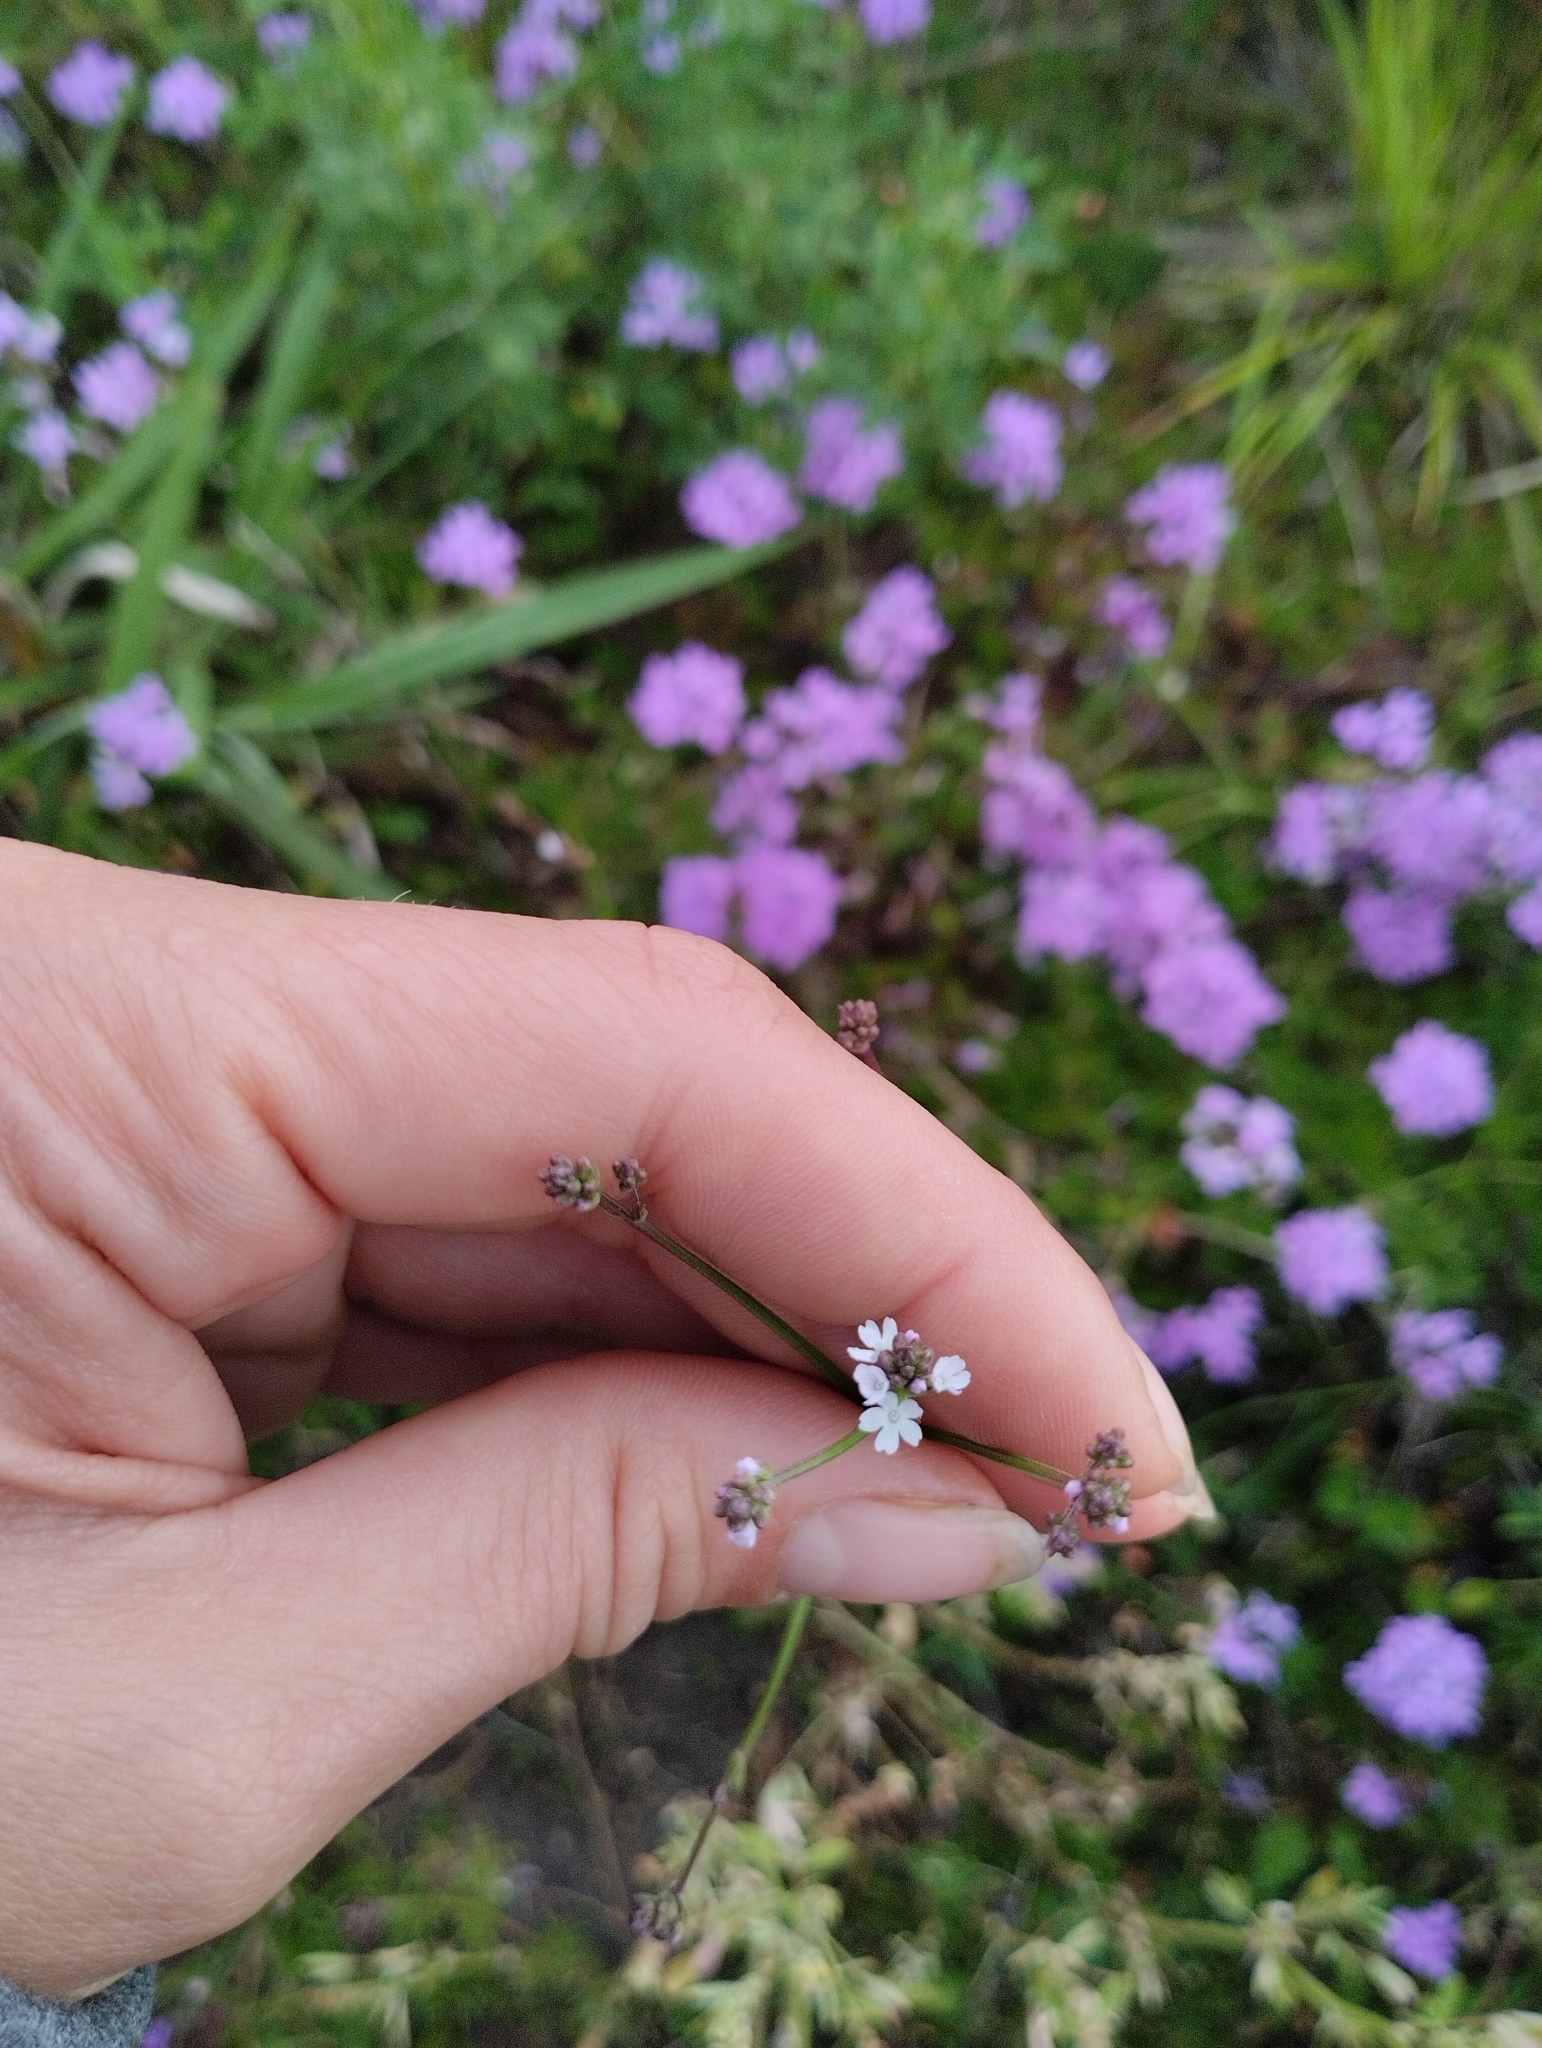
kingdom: Plantae
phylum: Tracheophyta
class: Magnoliopsida
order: Lamiales
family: Verbenaceae
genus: Verbena
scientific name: Verbena montevidensis
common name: Uruguayan vervain
